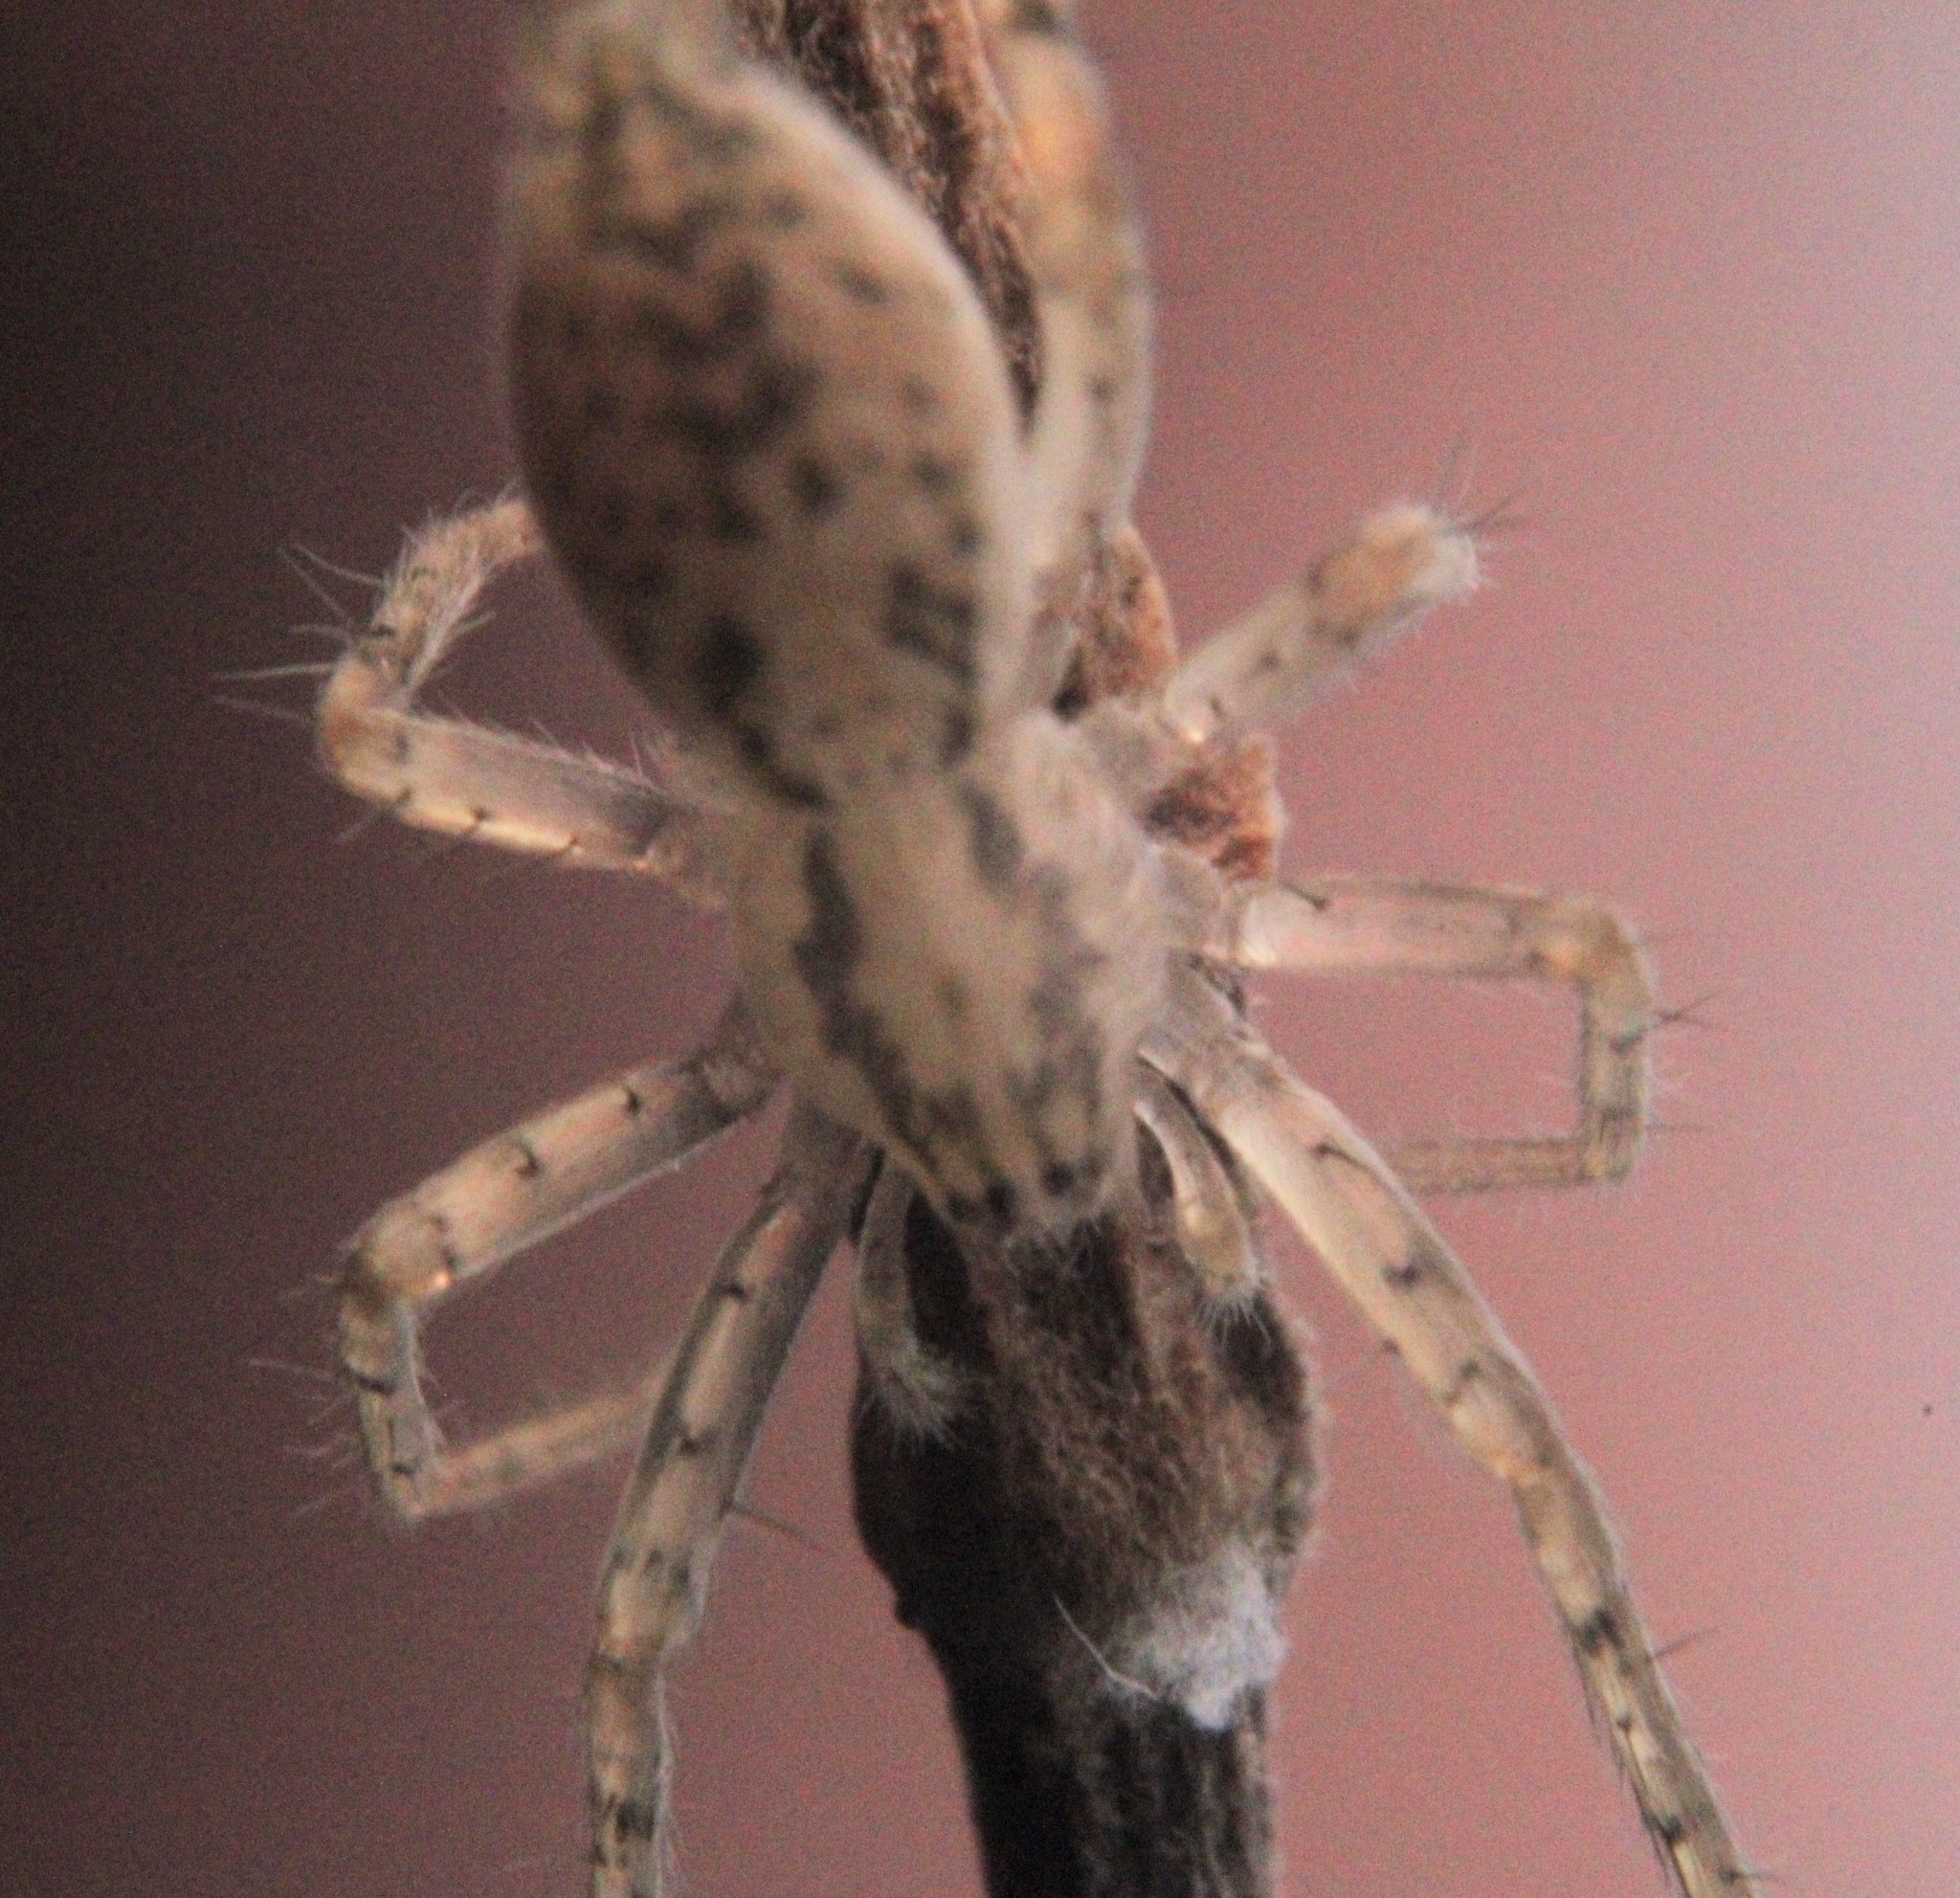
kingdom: Animalia
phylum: Arthropoda
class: Arachnida
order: Araneae
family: Anyphaenidae
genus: Wulfila
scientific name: Wulfila saltabundus
